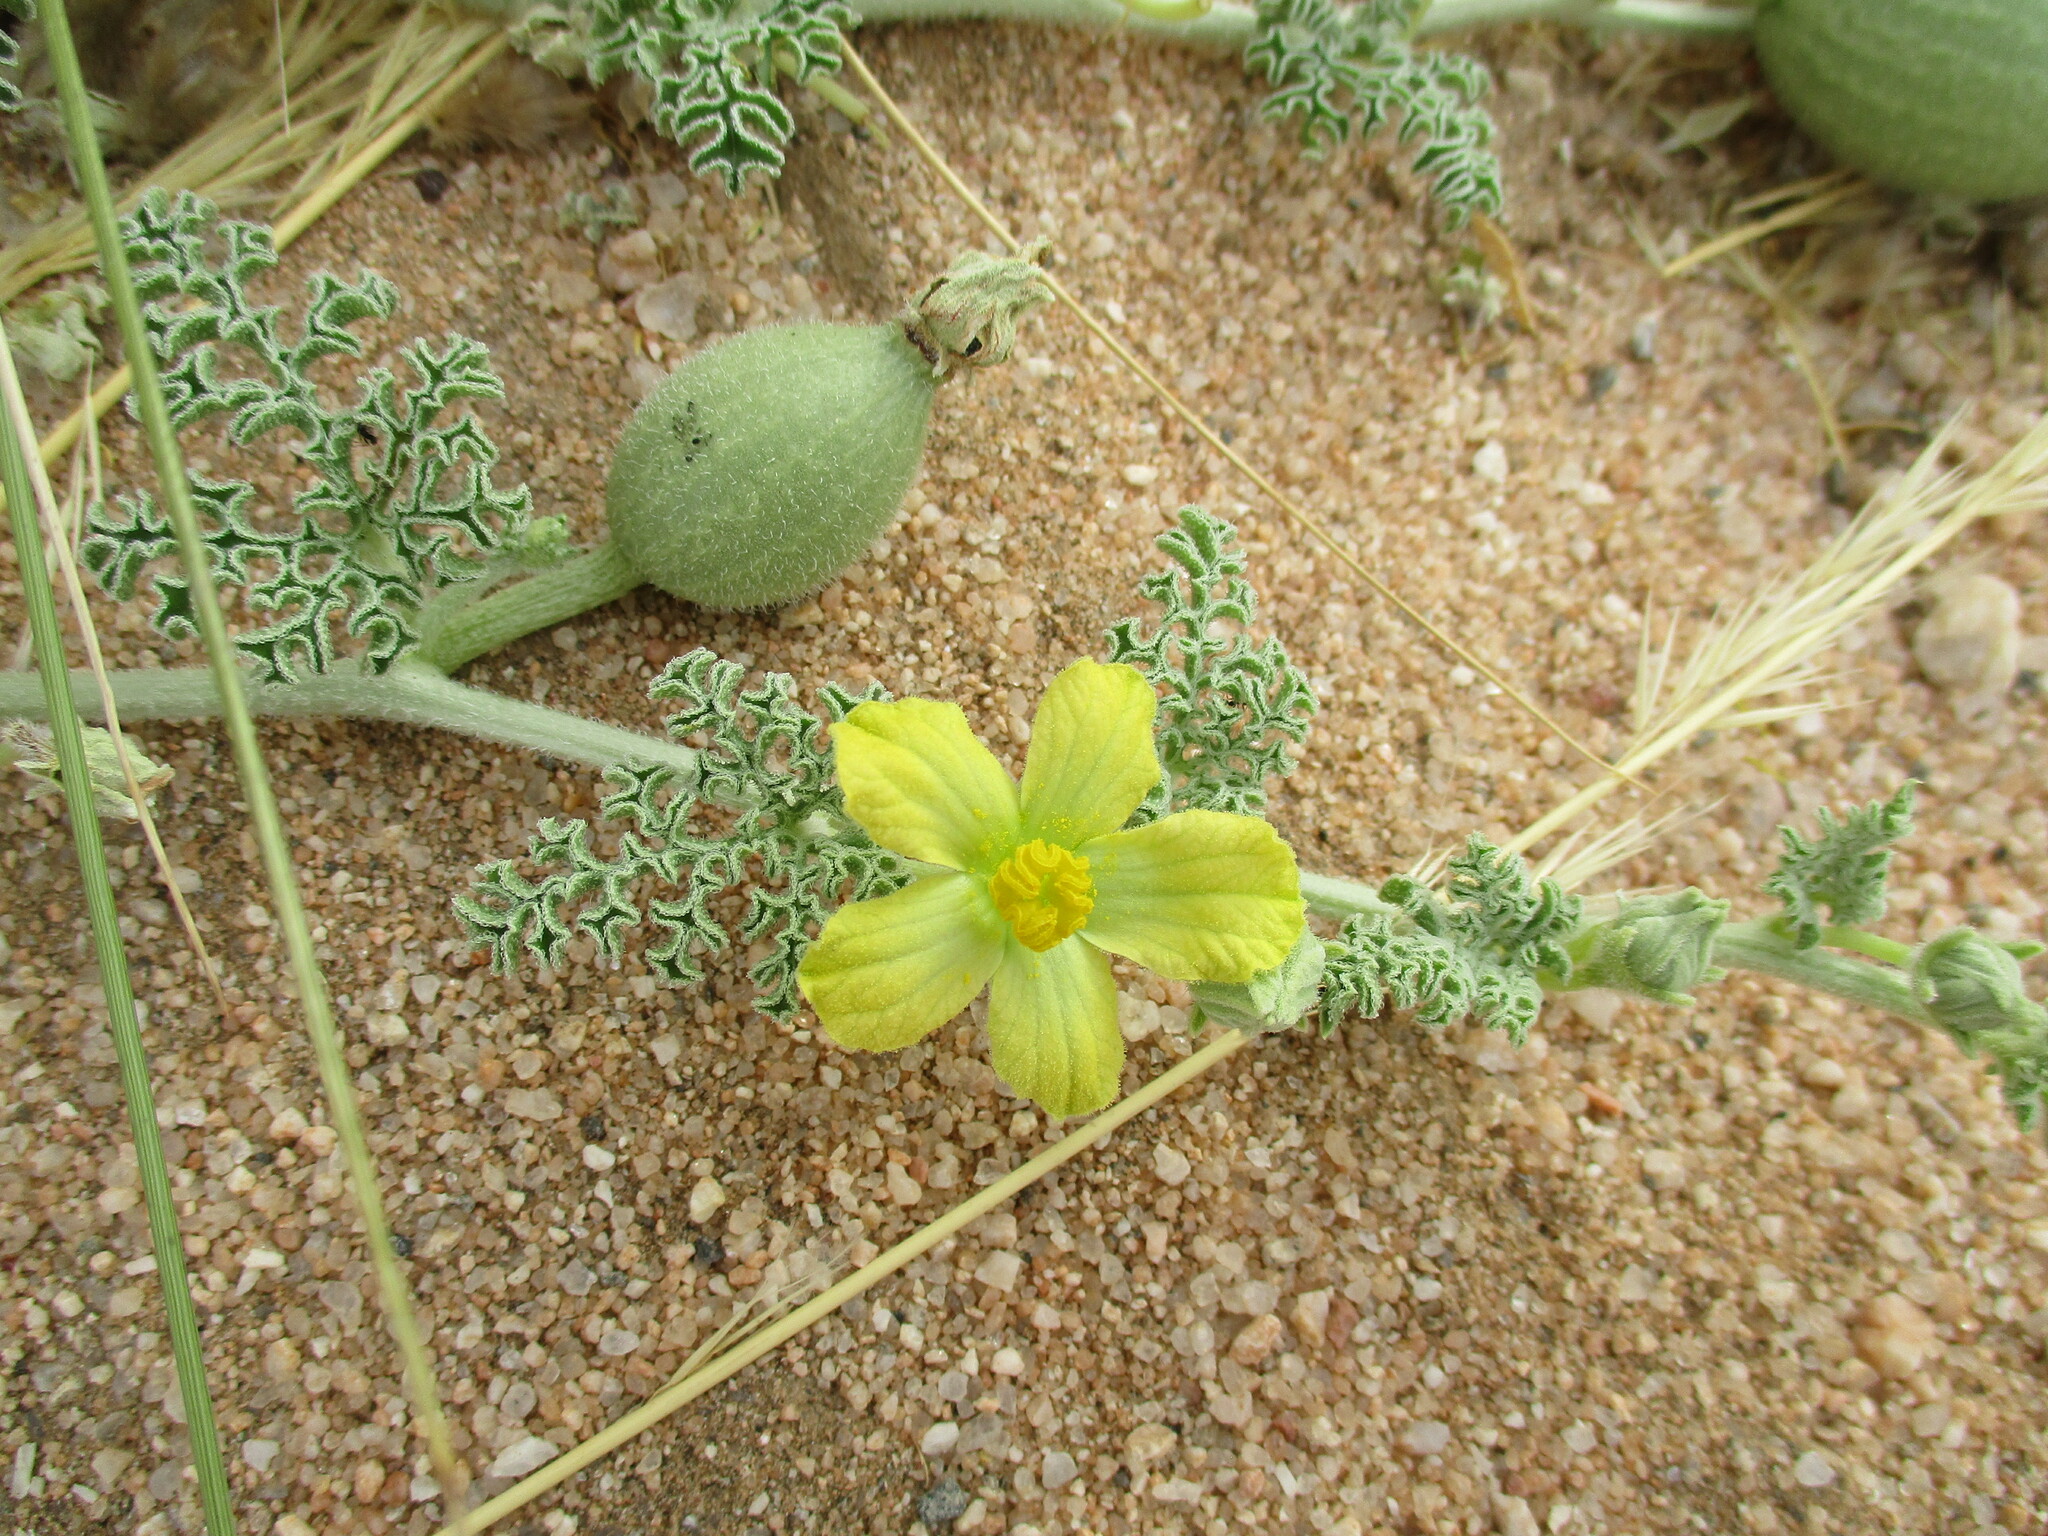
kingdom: Plantae
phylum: Tracheophyta
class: Magnoliopsida
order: Cucurbitales
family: Cucurbitaceae
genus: Citrullus
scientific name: Citrullus ecirrhosus
